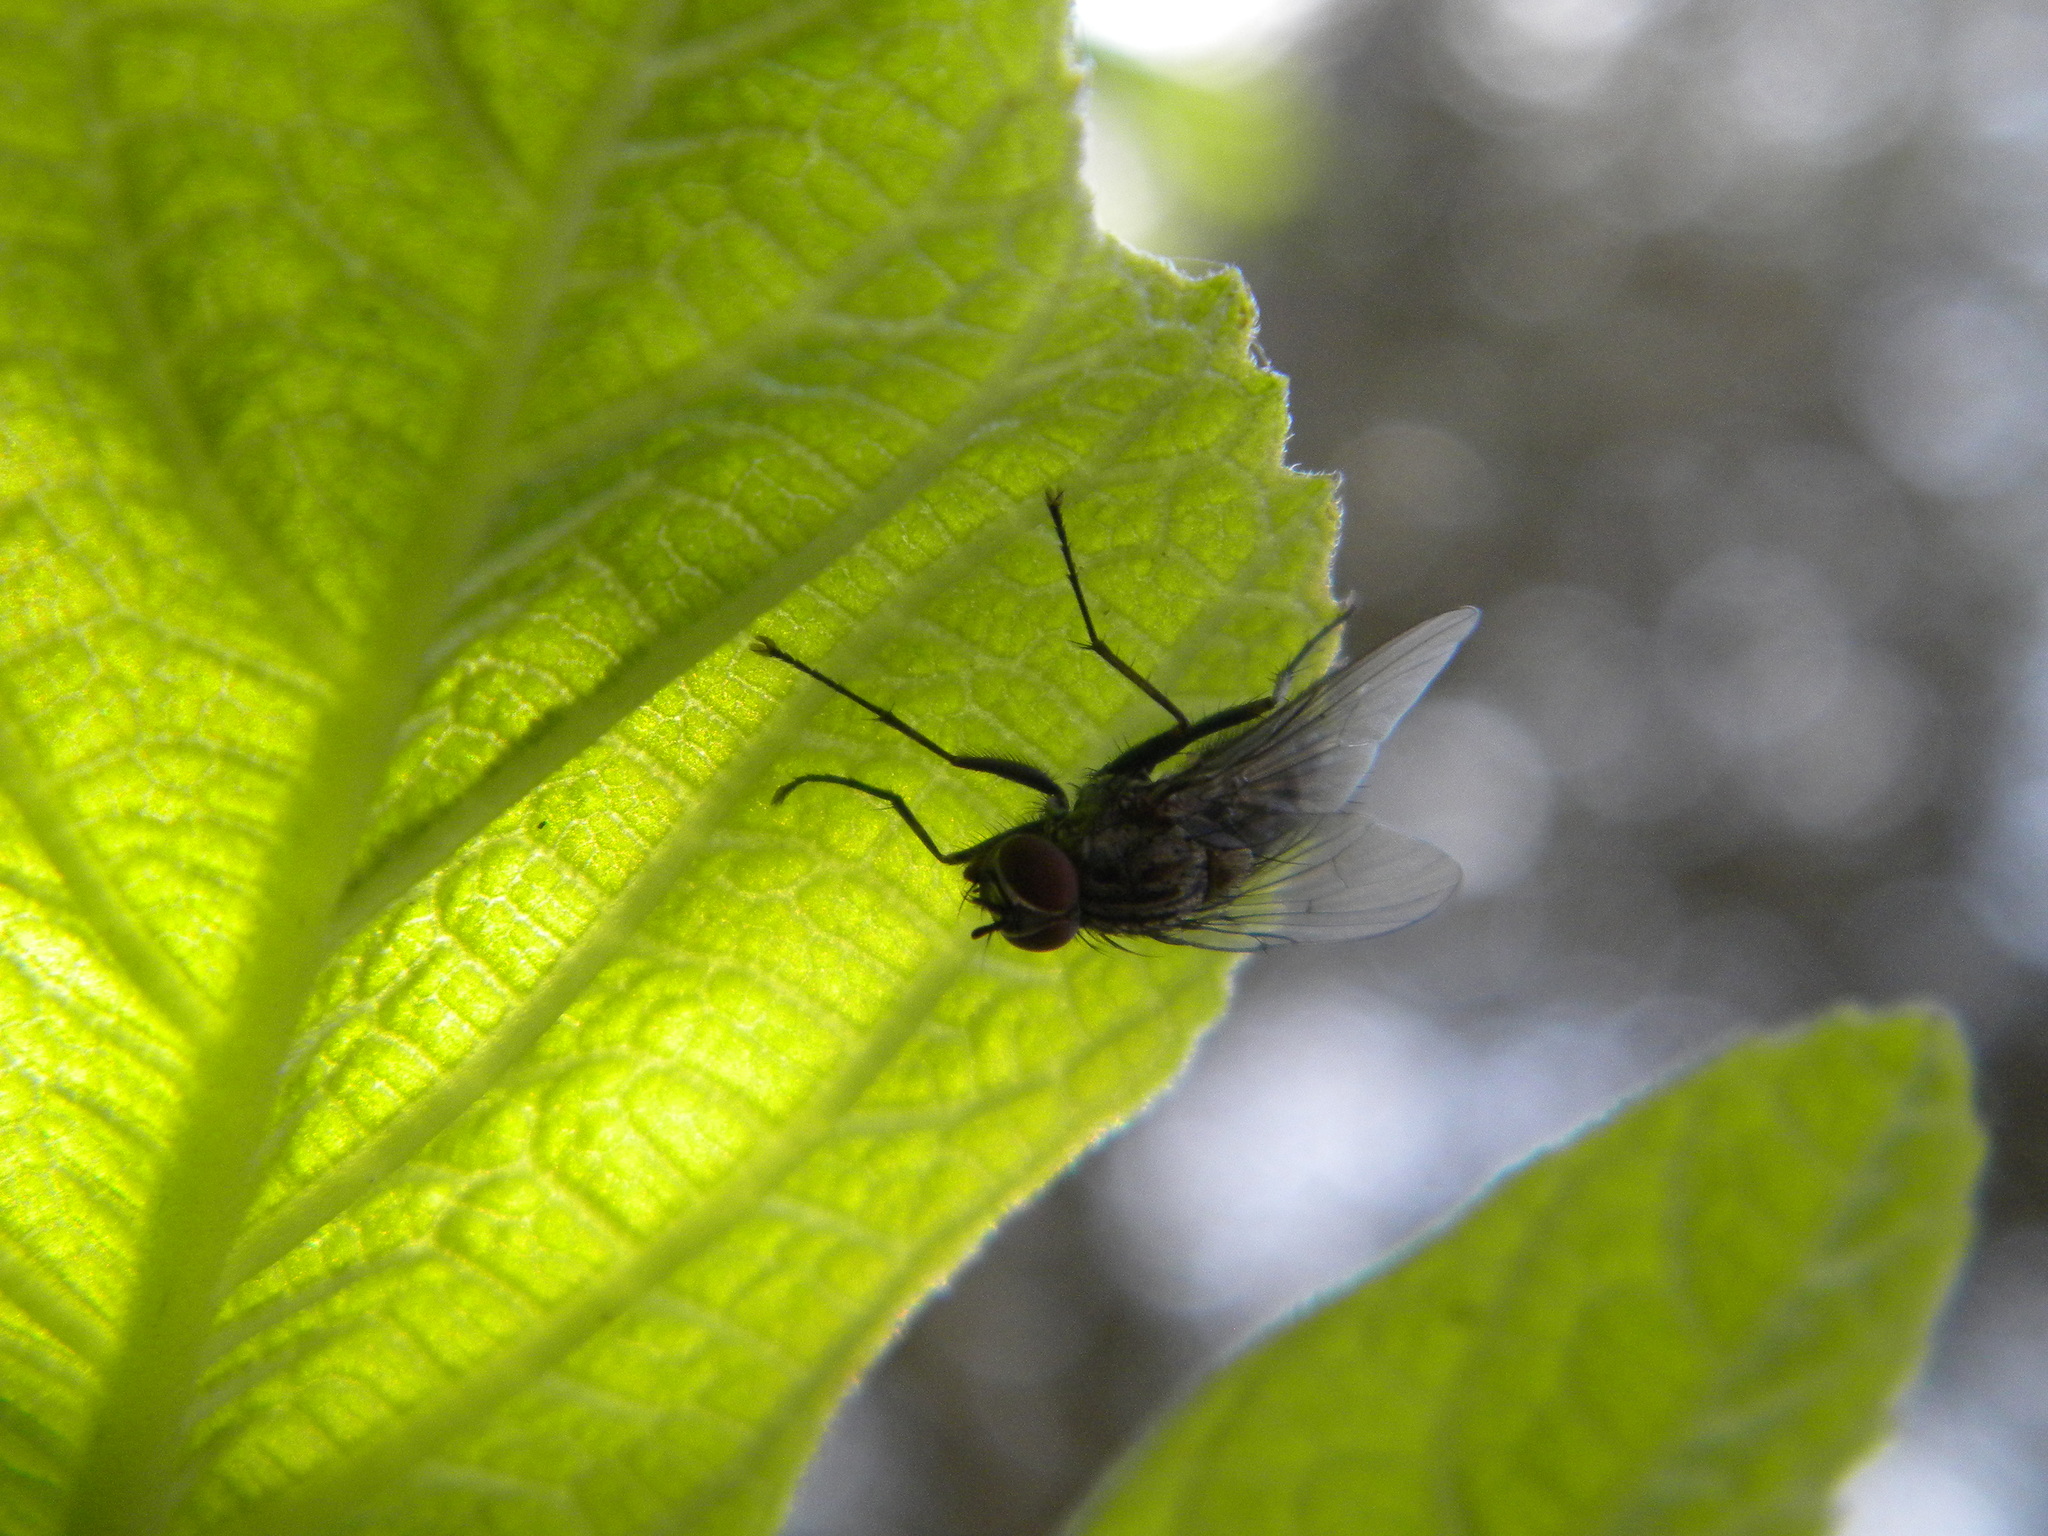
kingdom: Animalia
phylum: Arthropoda
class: Insecta
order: Diptera
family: Muscidae
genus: Helina
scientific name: Helina
